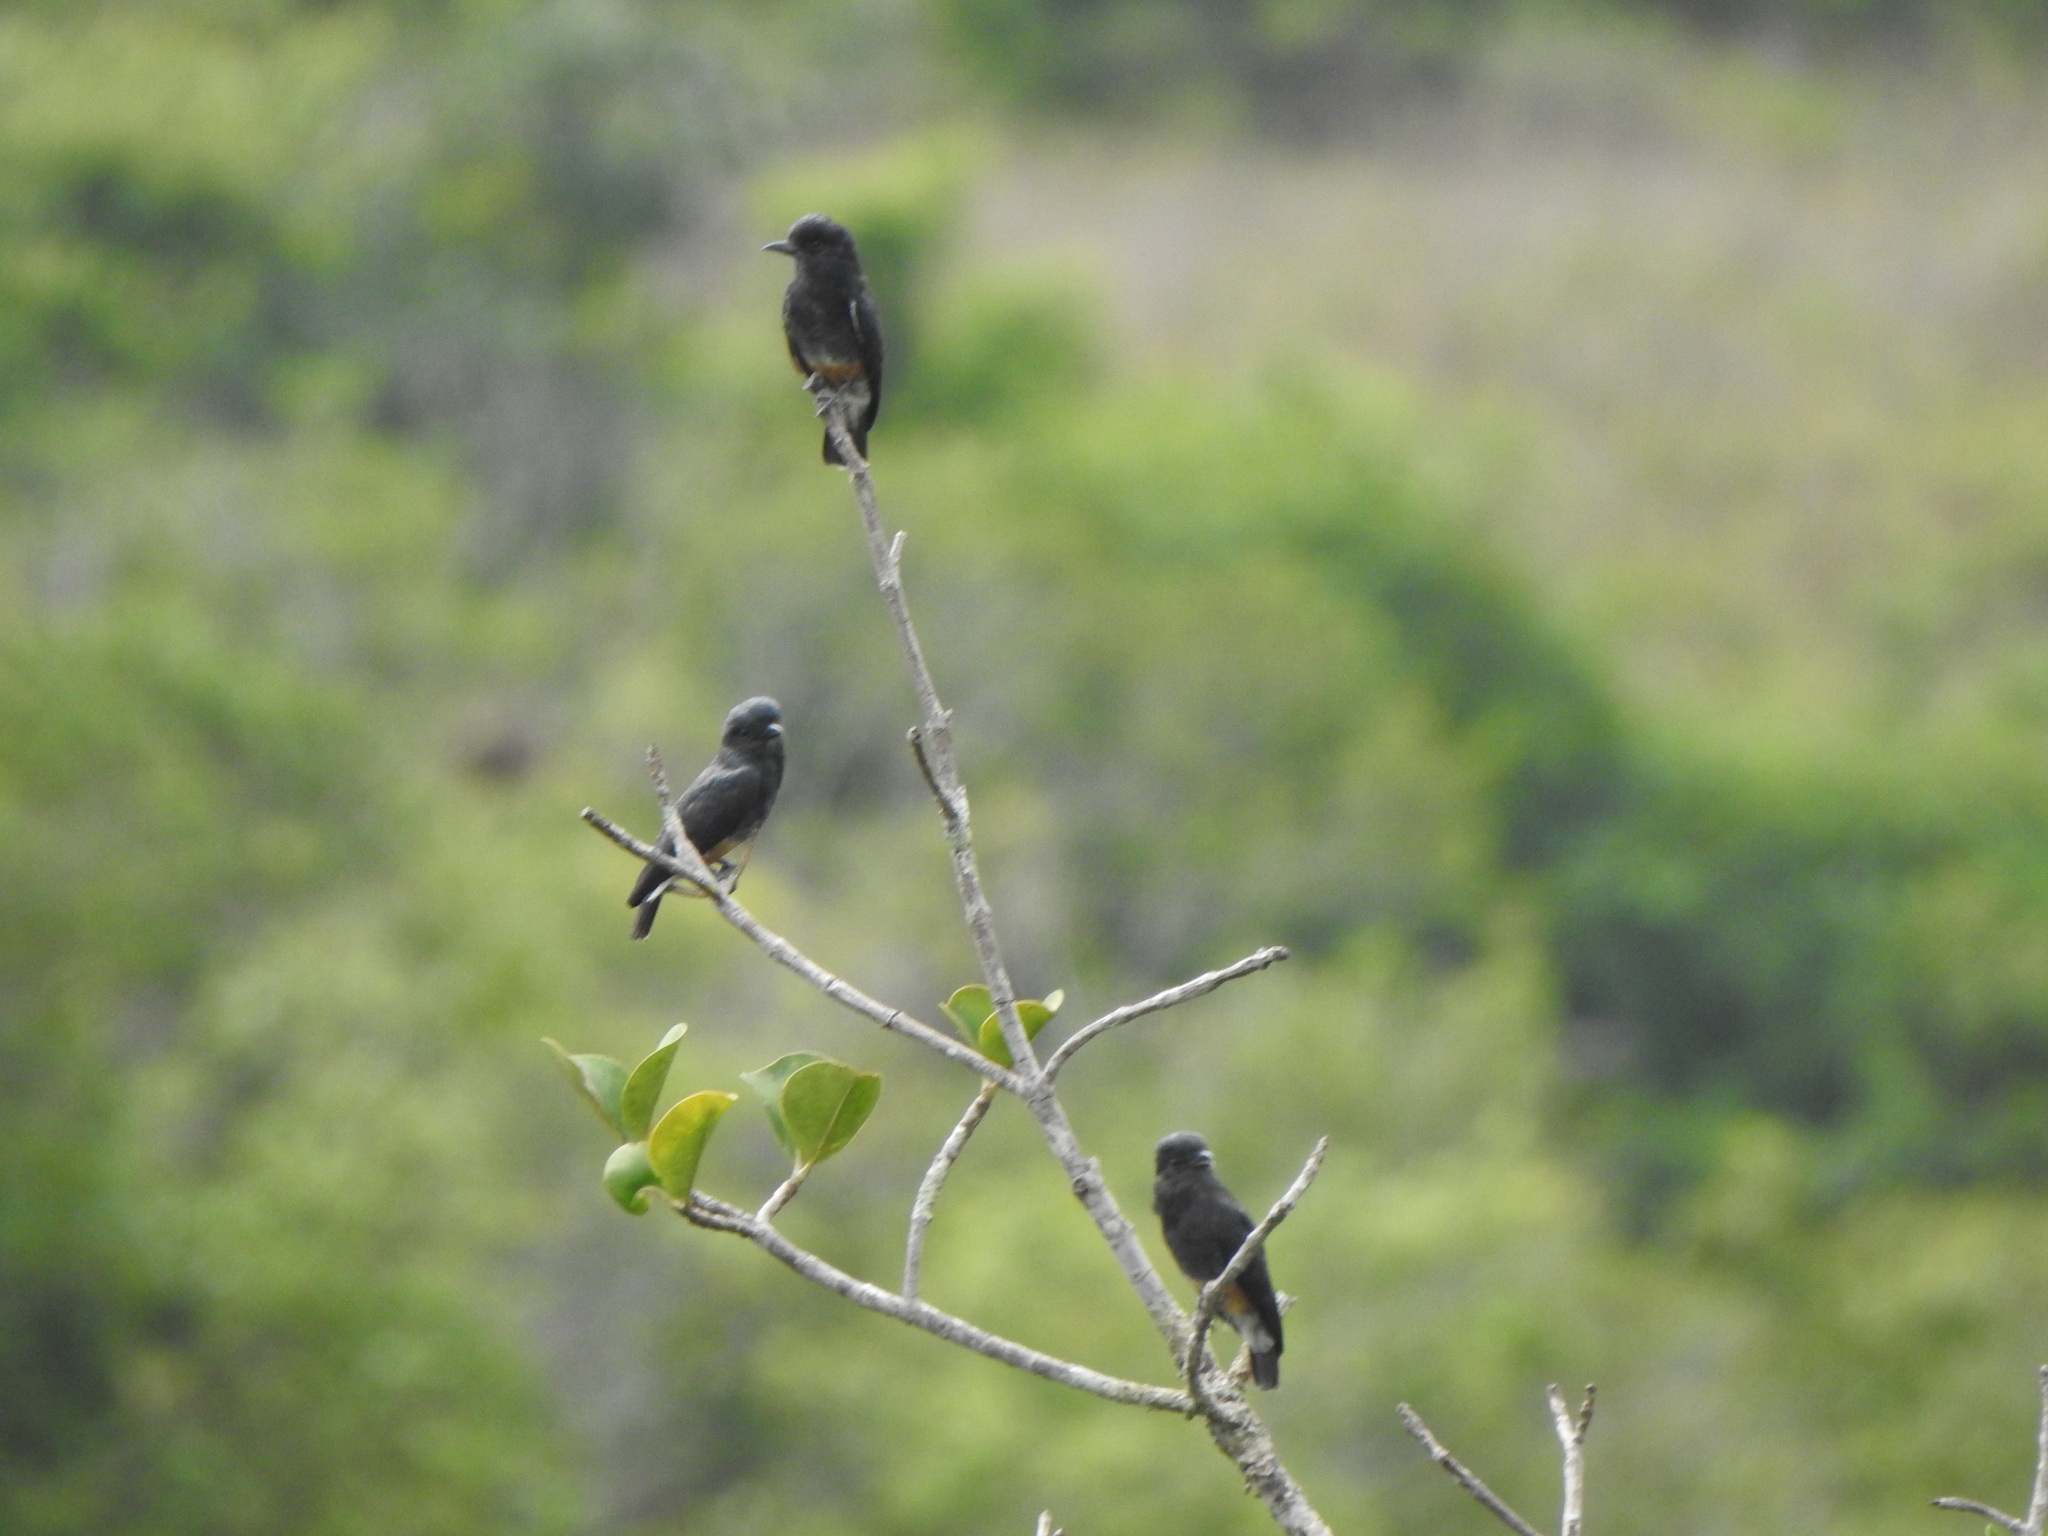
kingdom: Animalia
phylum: Chordata
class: Aves
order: Piciformes
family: Bucconidae
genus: Chelidoptera
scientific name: Chelidoptera tenebrosa
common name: Swallow-winged puffbird
